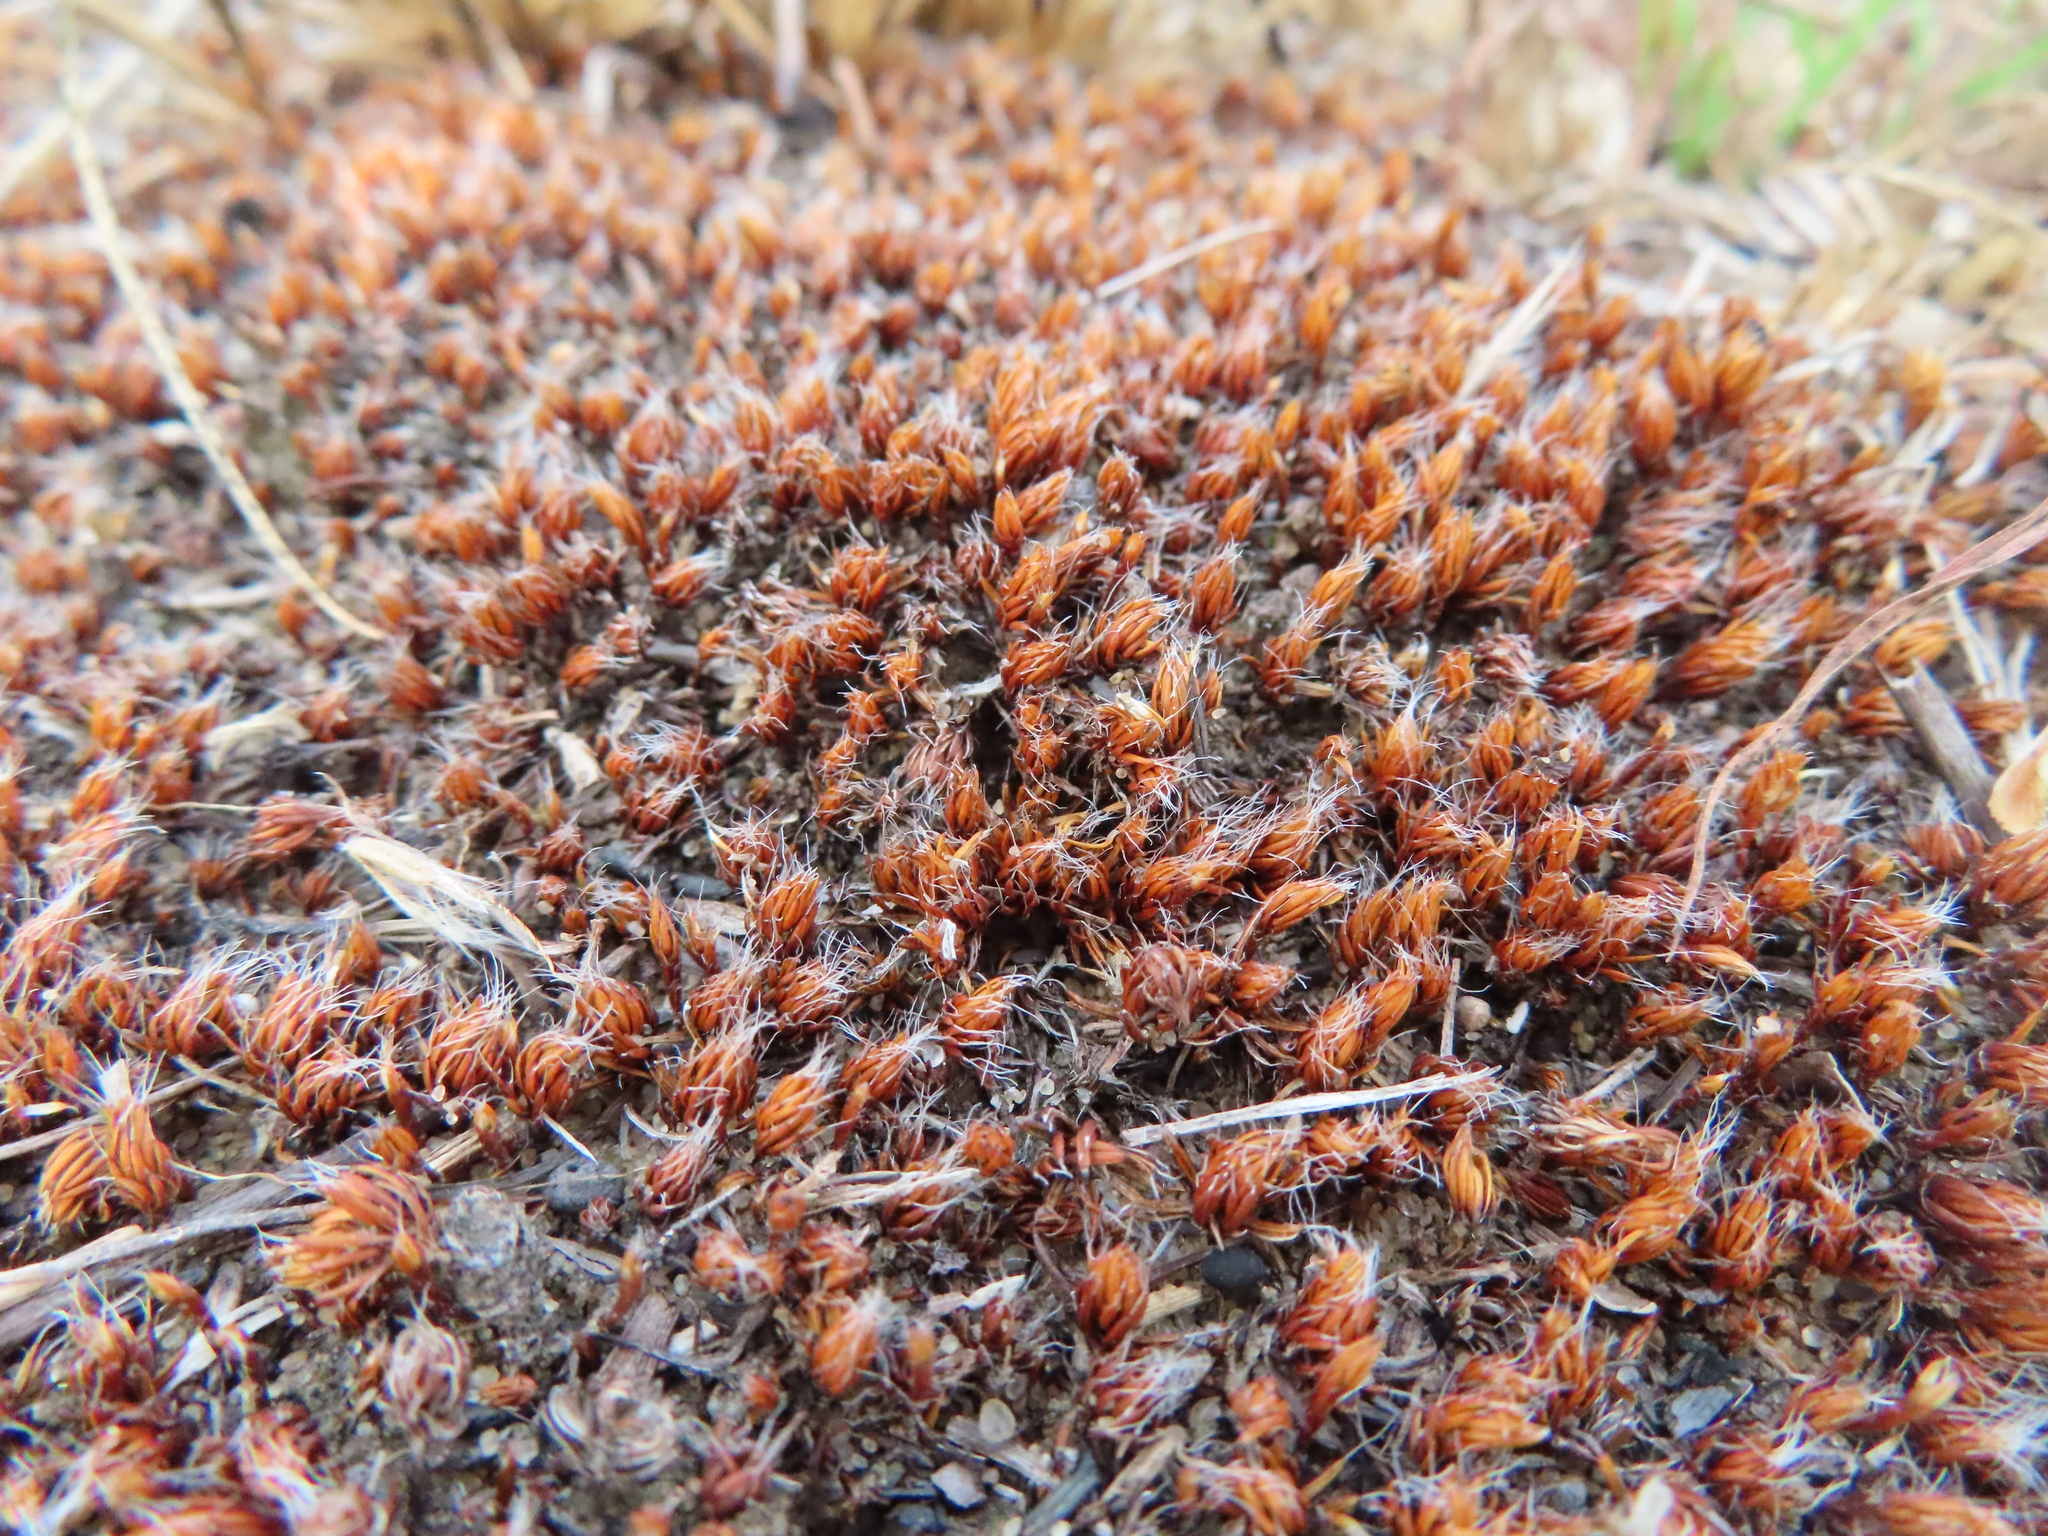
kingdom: Plantae
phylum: Bryophyta
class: Polytrichopsida
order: Polytrichales
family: Polytrichaceae
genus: Polytrichum
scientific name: Polytrichum piliferum
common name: Bristly haircap
